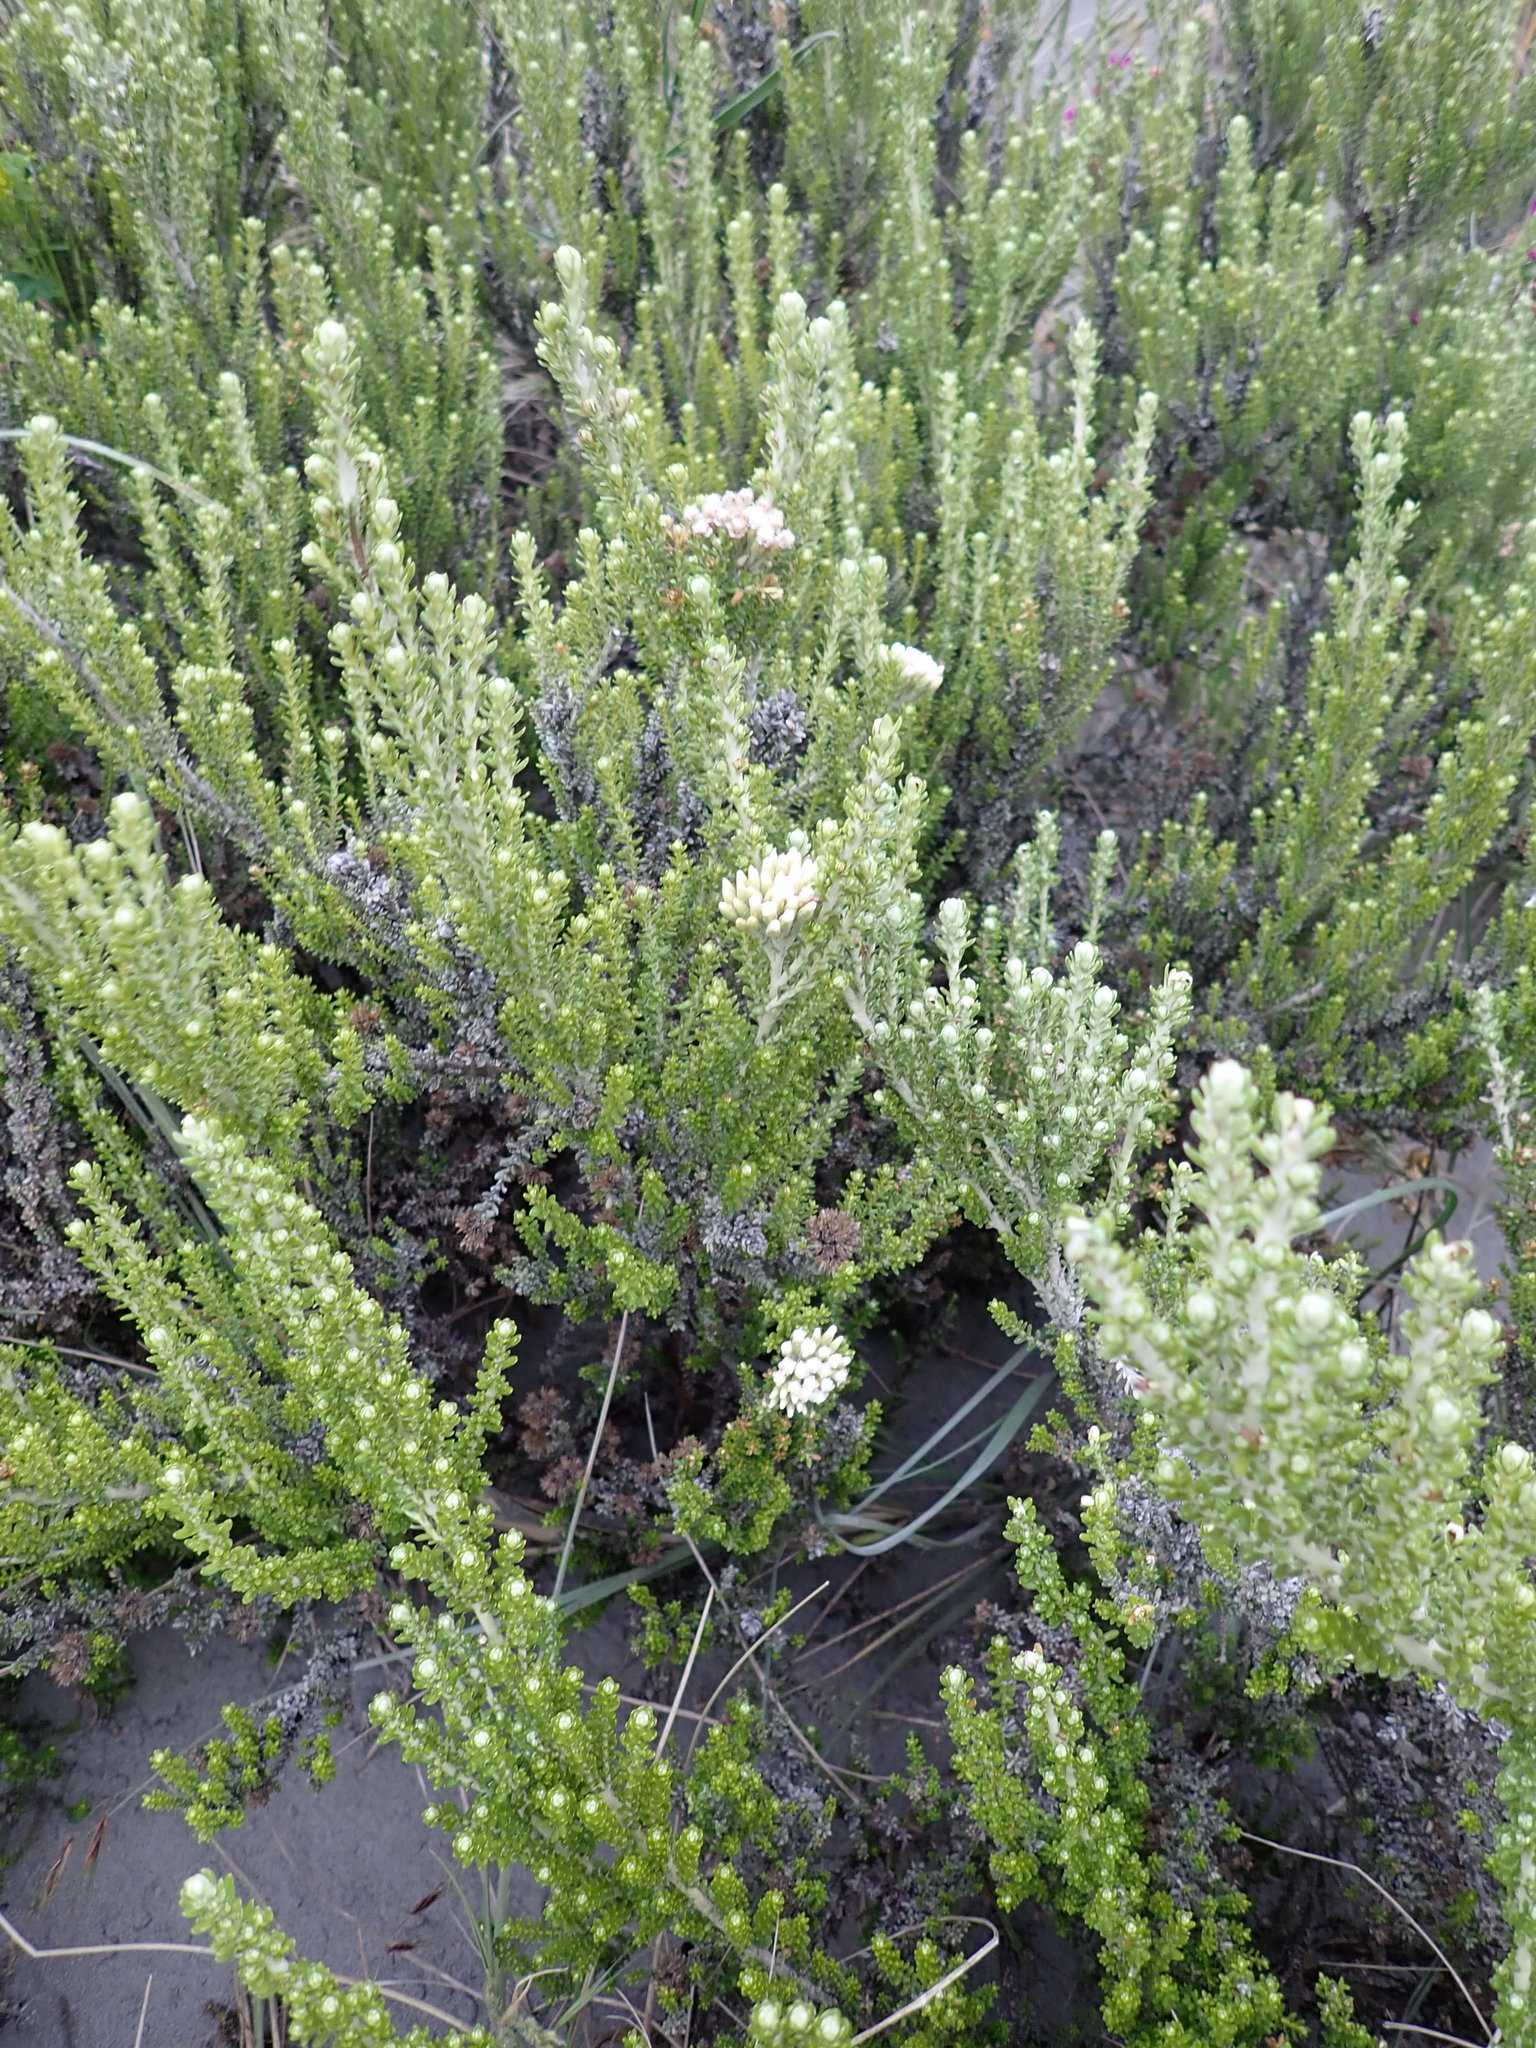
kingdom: Plantae
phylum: Tracheophyta
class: Magnoliopsida
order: Asterales
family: Asteraceae
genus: Ozothamnus
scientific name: Ozothamnus leptophyllus
